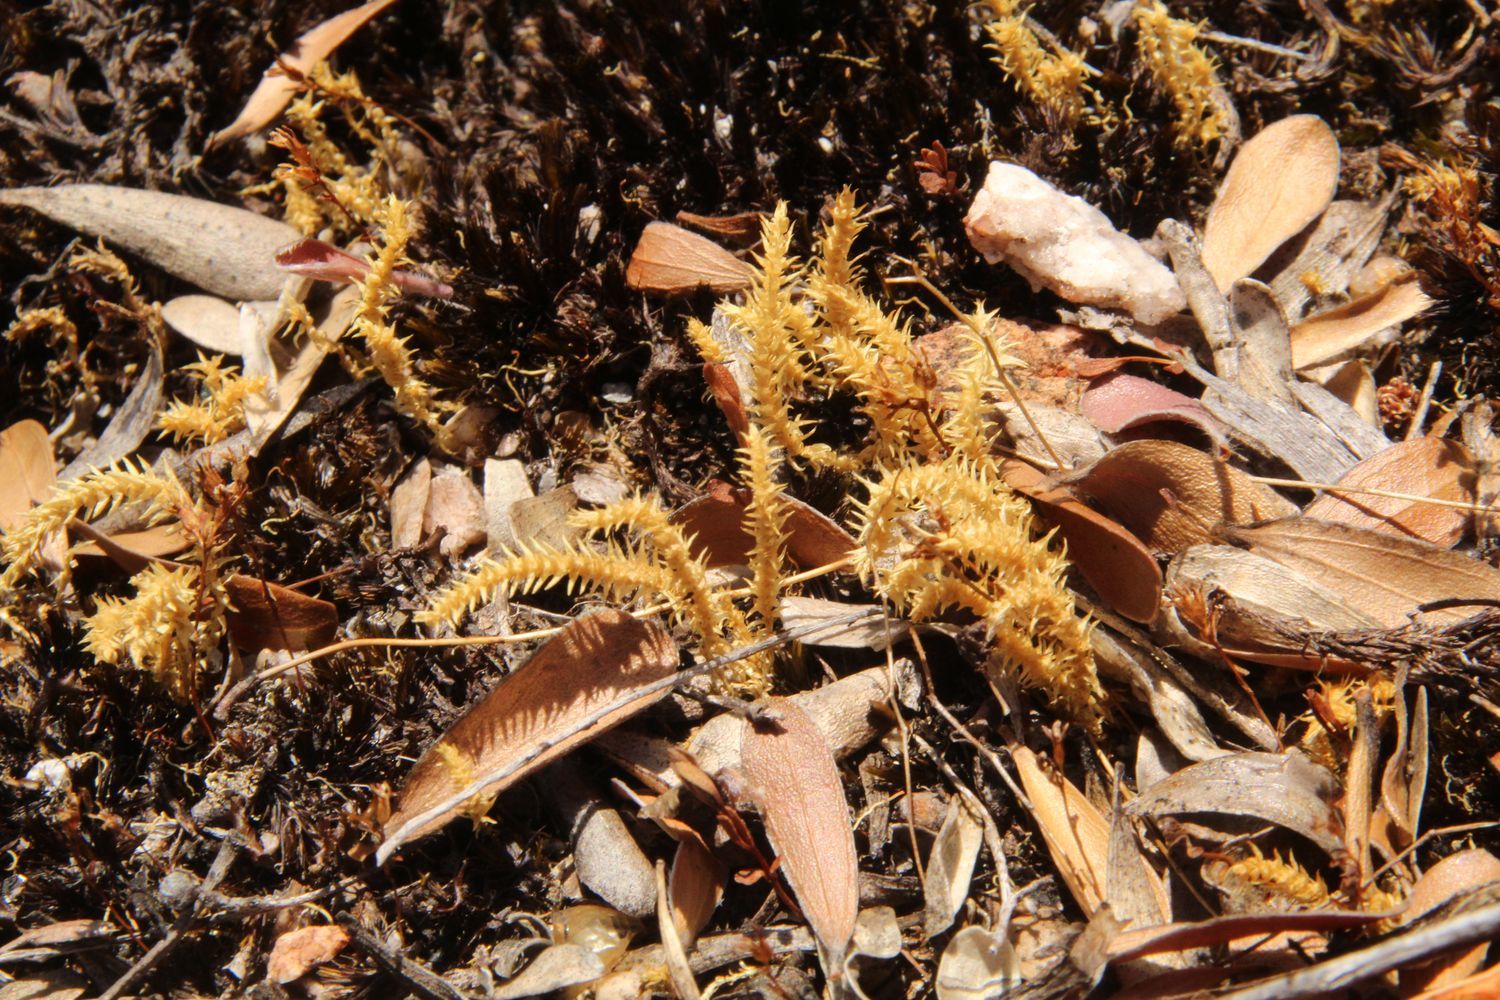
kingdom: Plantae
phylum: Tracheophyta
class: Lycopodiopsida
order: Selaginellales
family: Selaginellaceae
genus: Selaginella
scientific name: Selaginella gracillima
